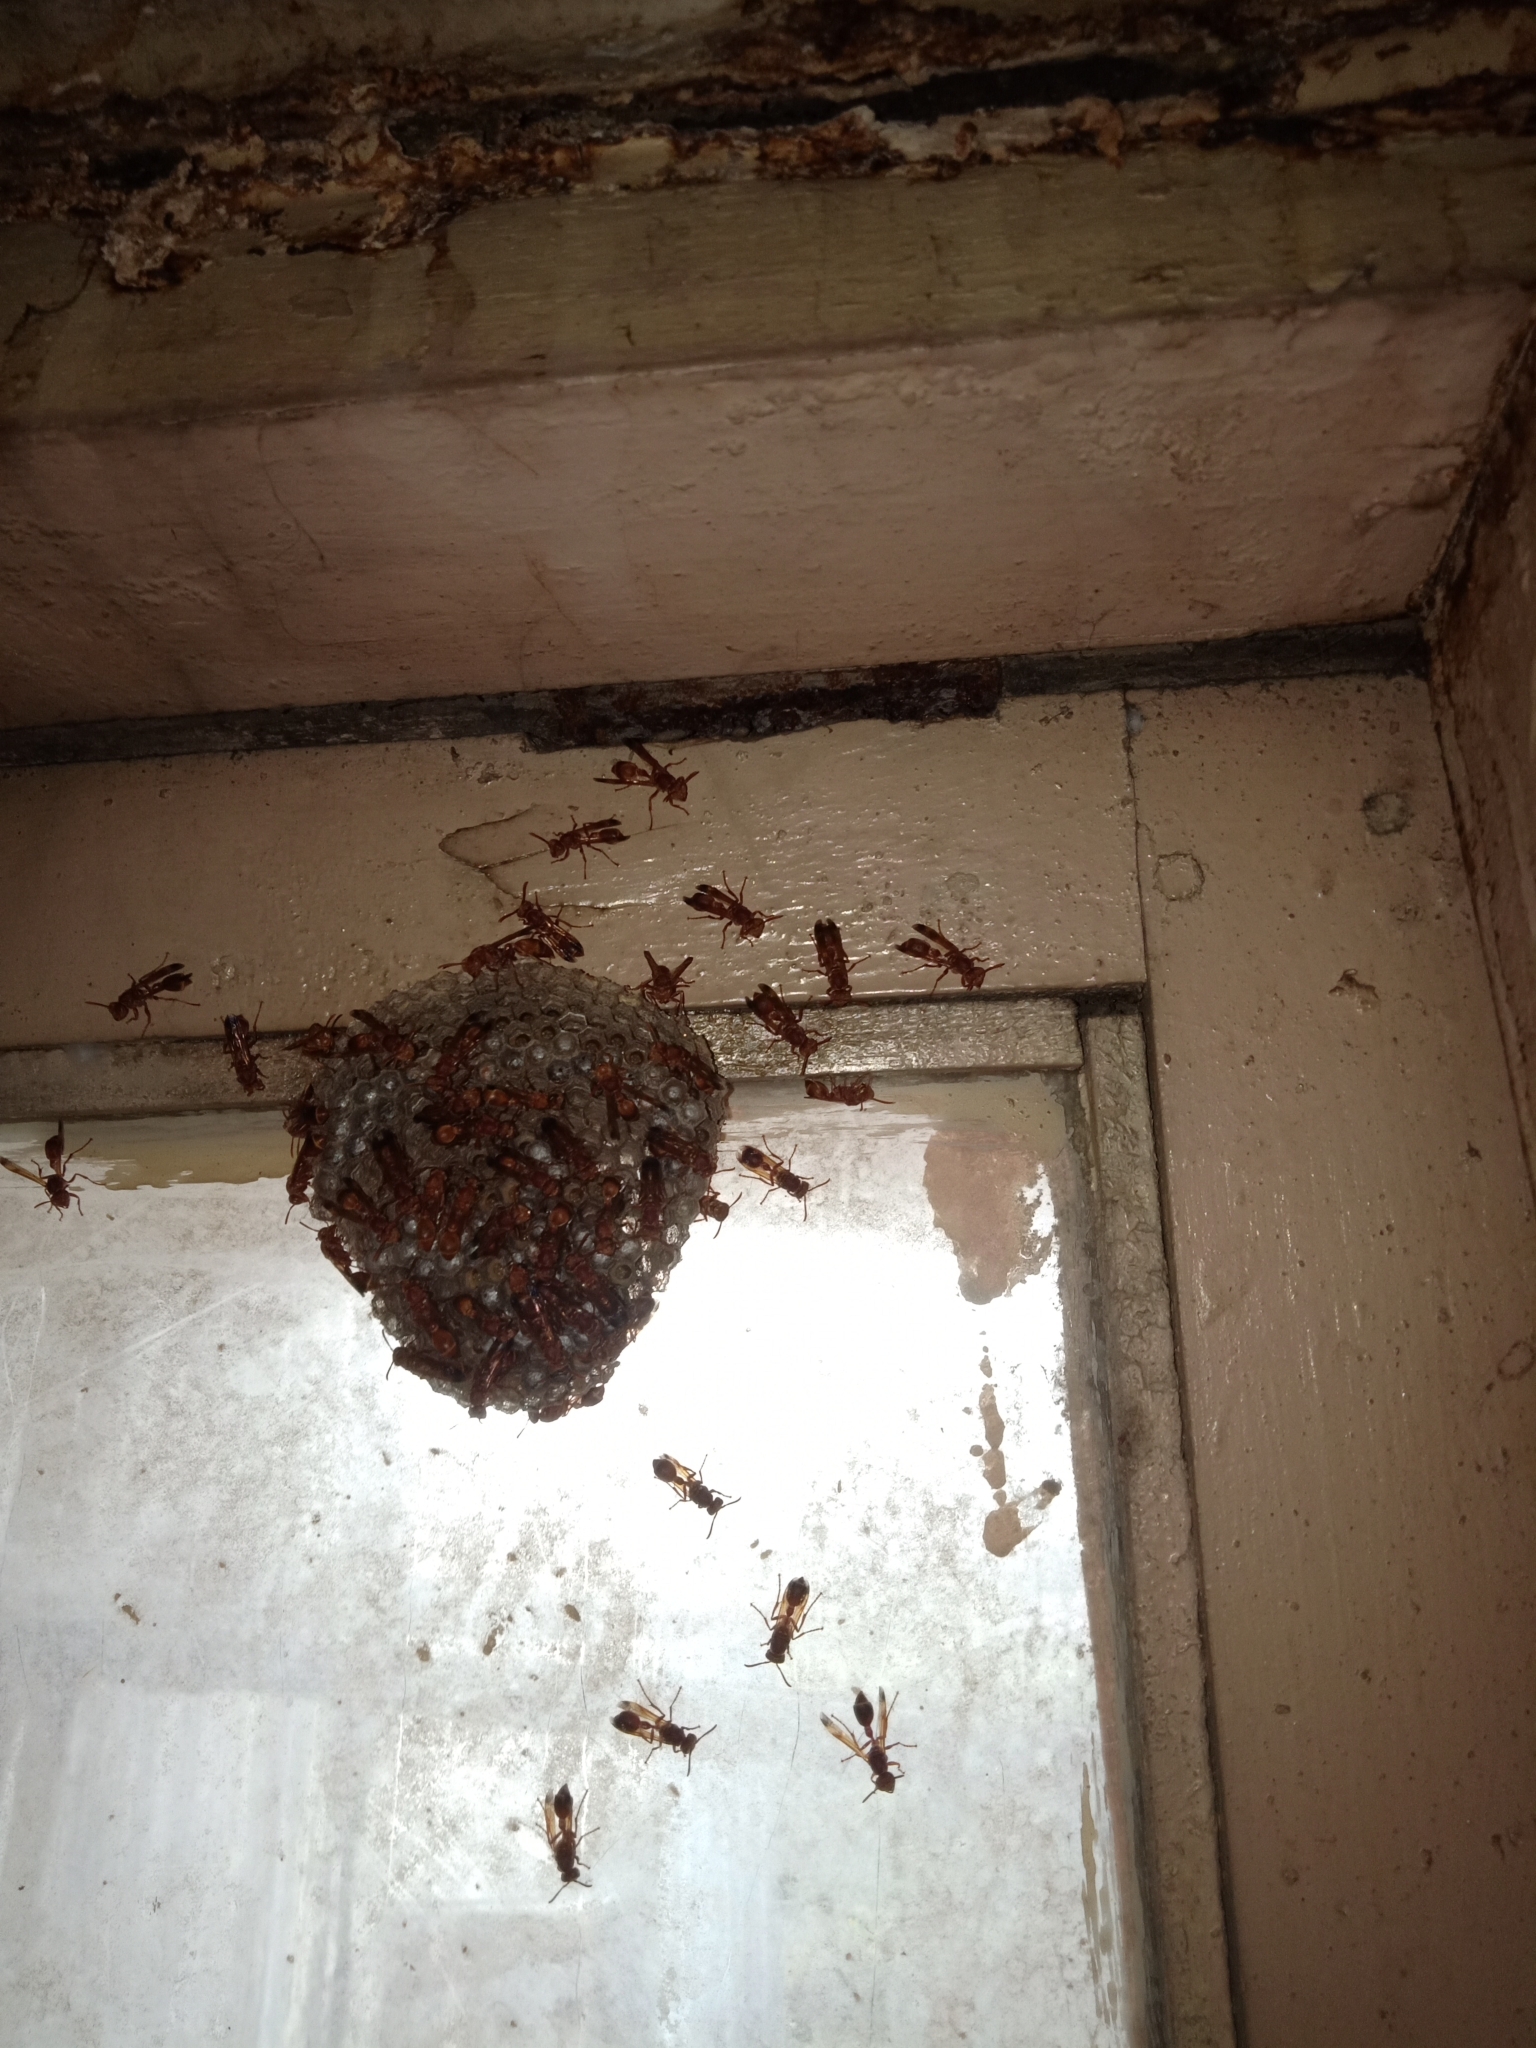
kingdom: Animalia
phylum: Arthropoda
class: Insecta
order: Hymenoptera
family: Vespidae
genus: Ropalidia
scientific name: Ropalidia marginata
